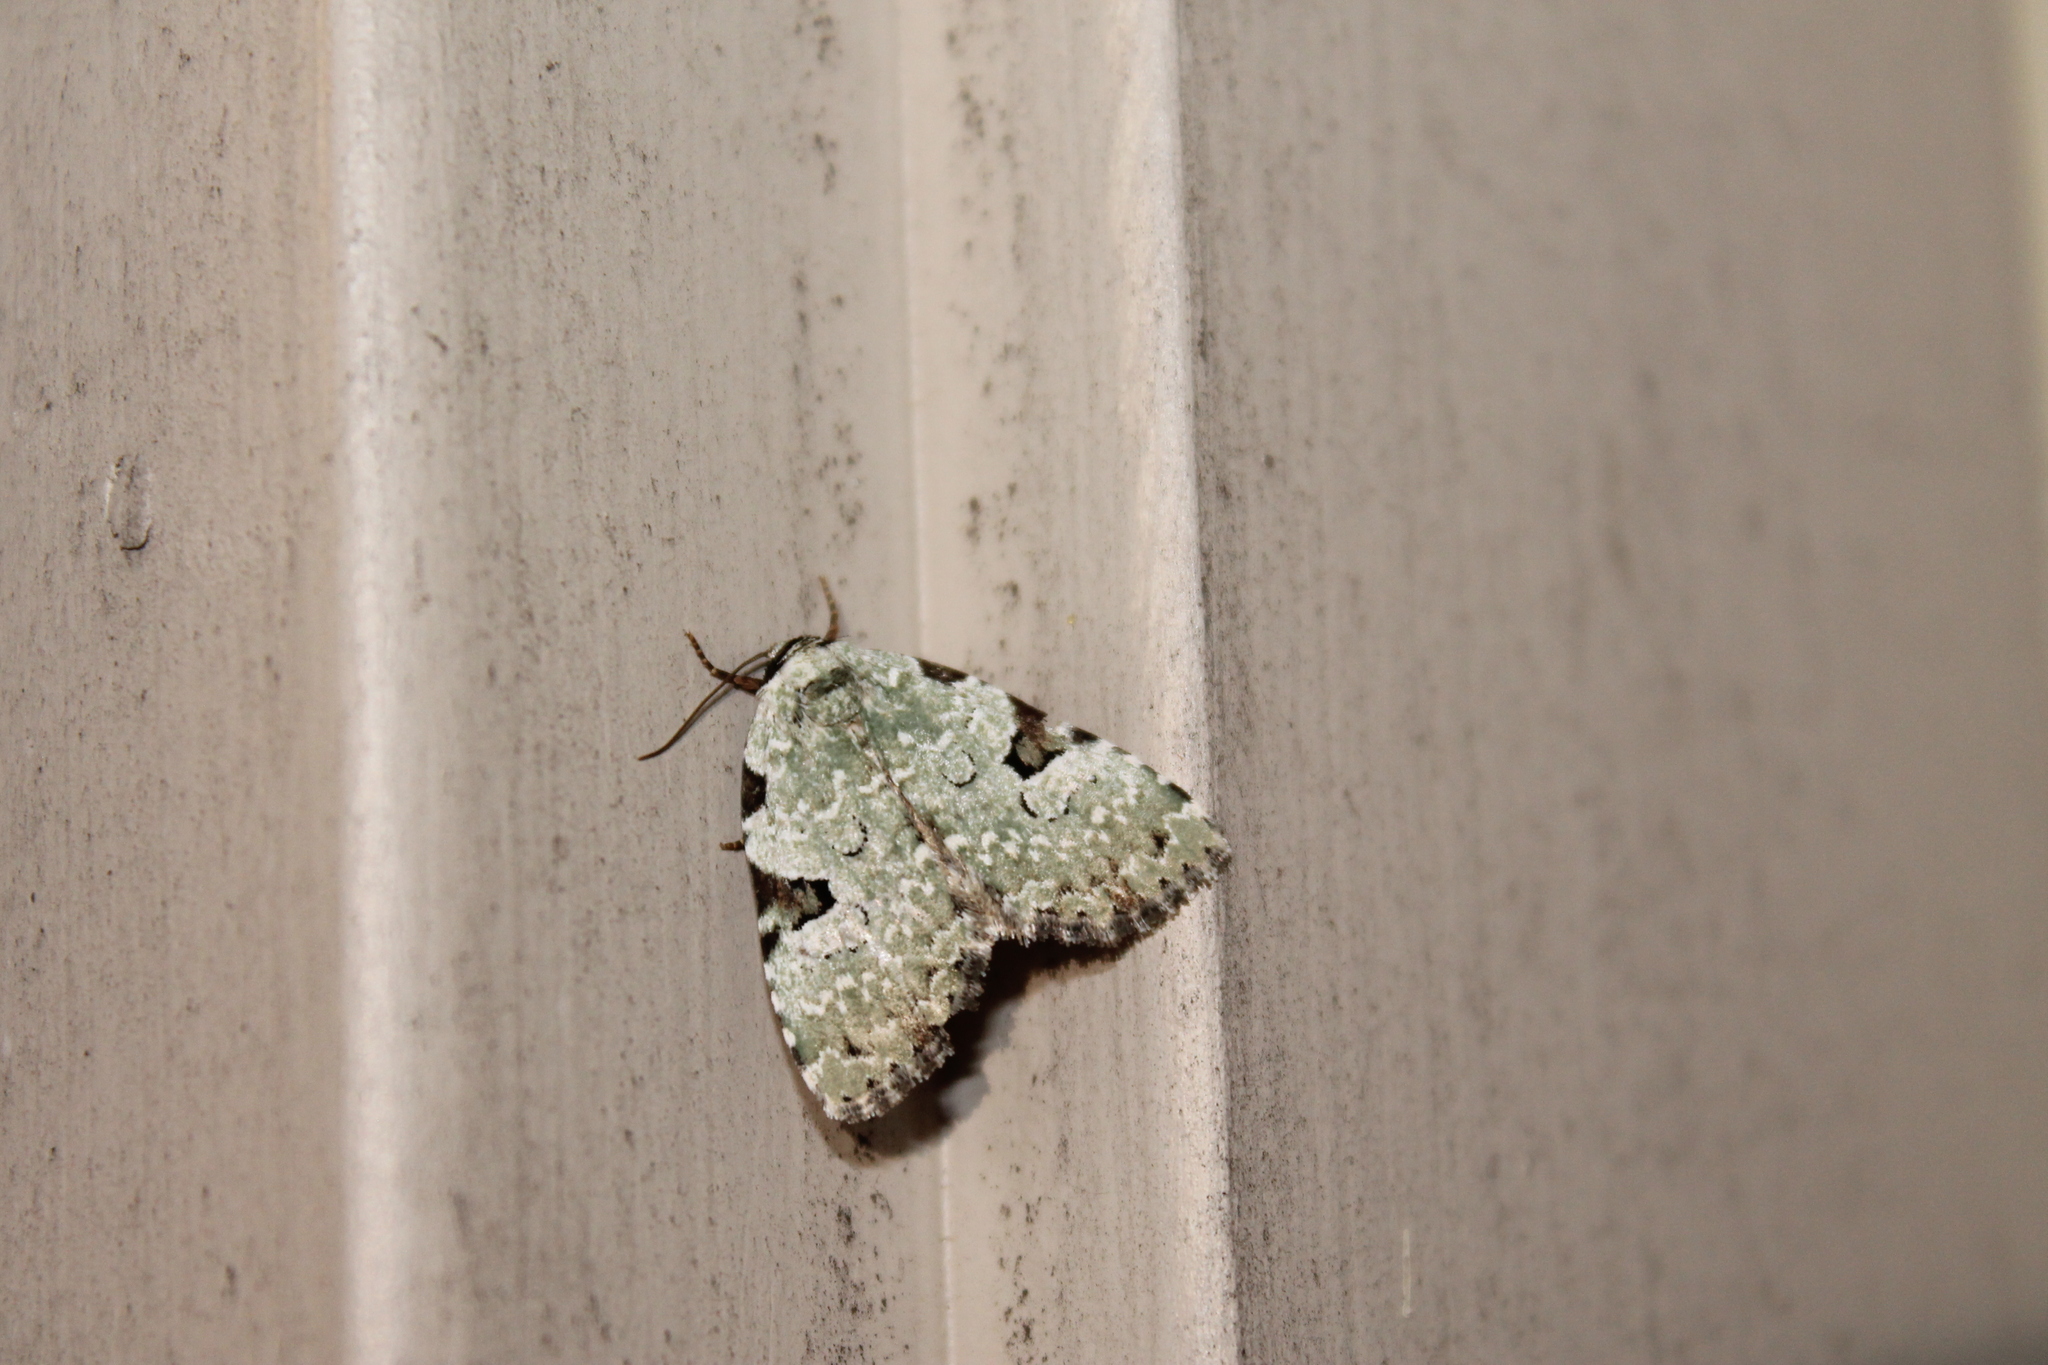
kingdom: Animalia
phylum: Arthropoda
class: Insecta
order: Lepidoptera
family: Noctuidae
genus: Leuconycta
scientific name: Leuconycta diphteroides
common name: Green leuconycta moth
